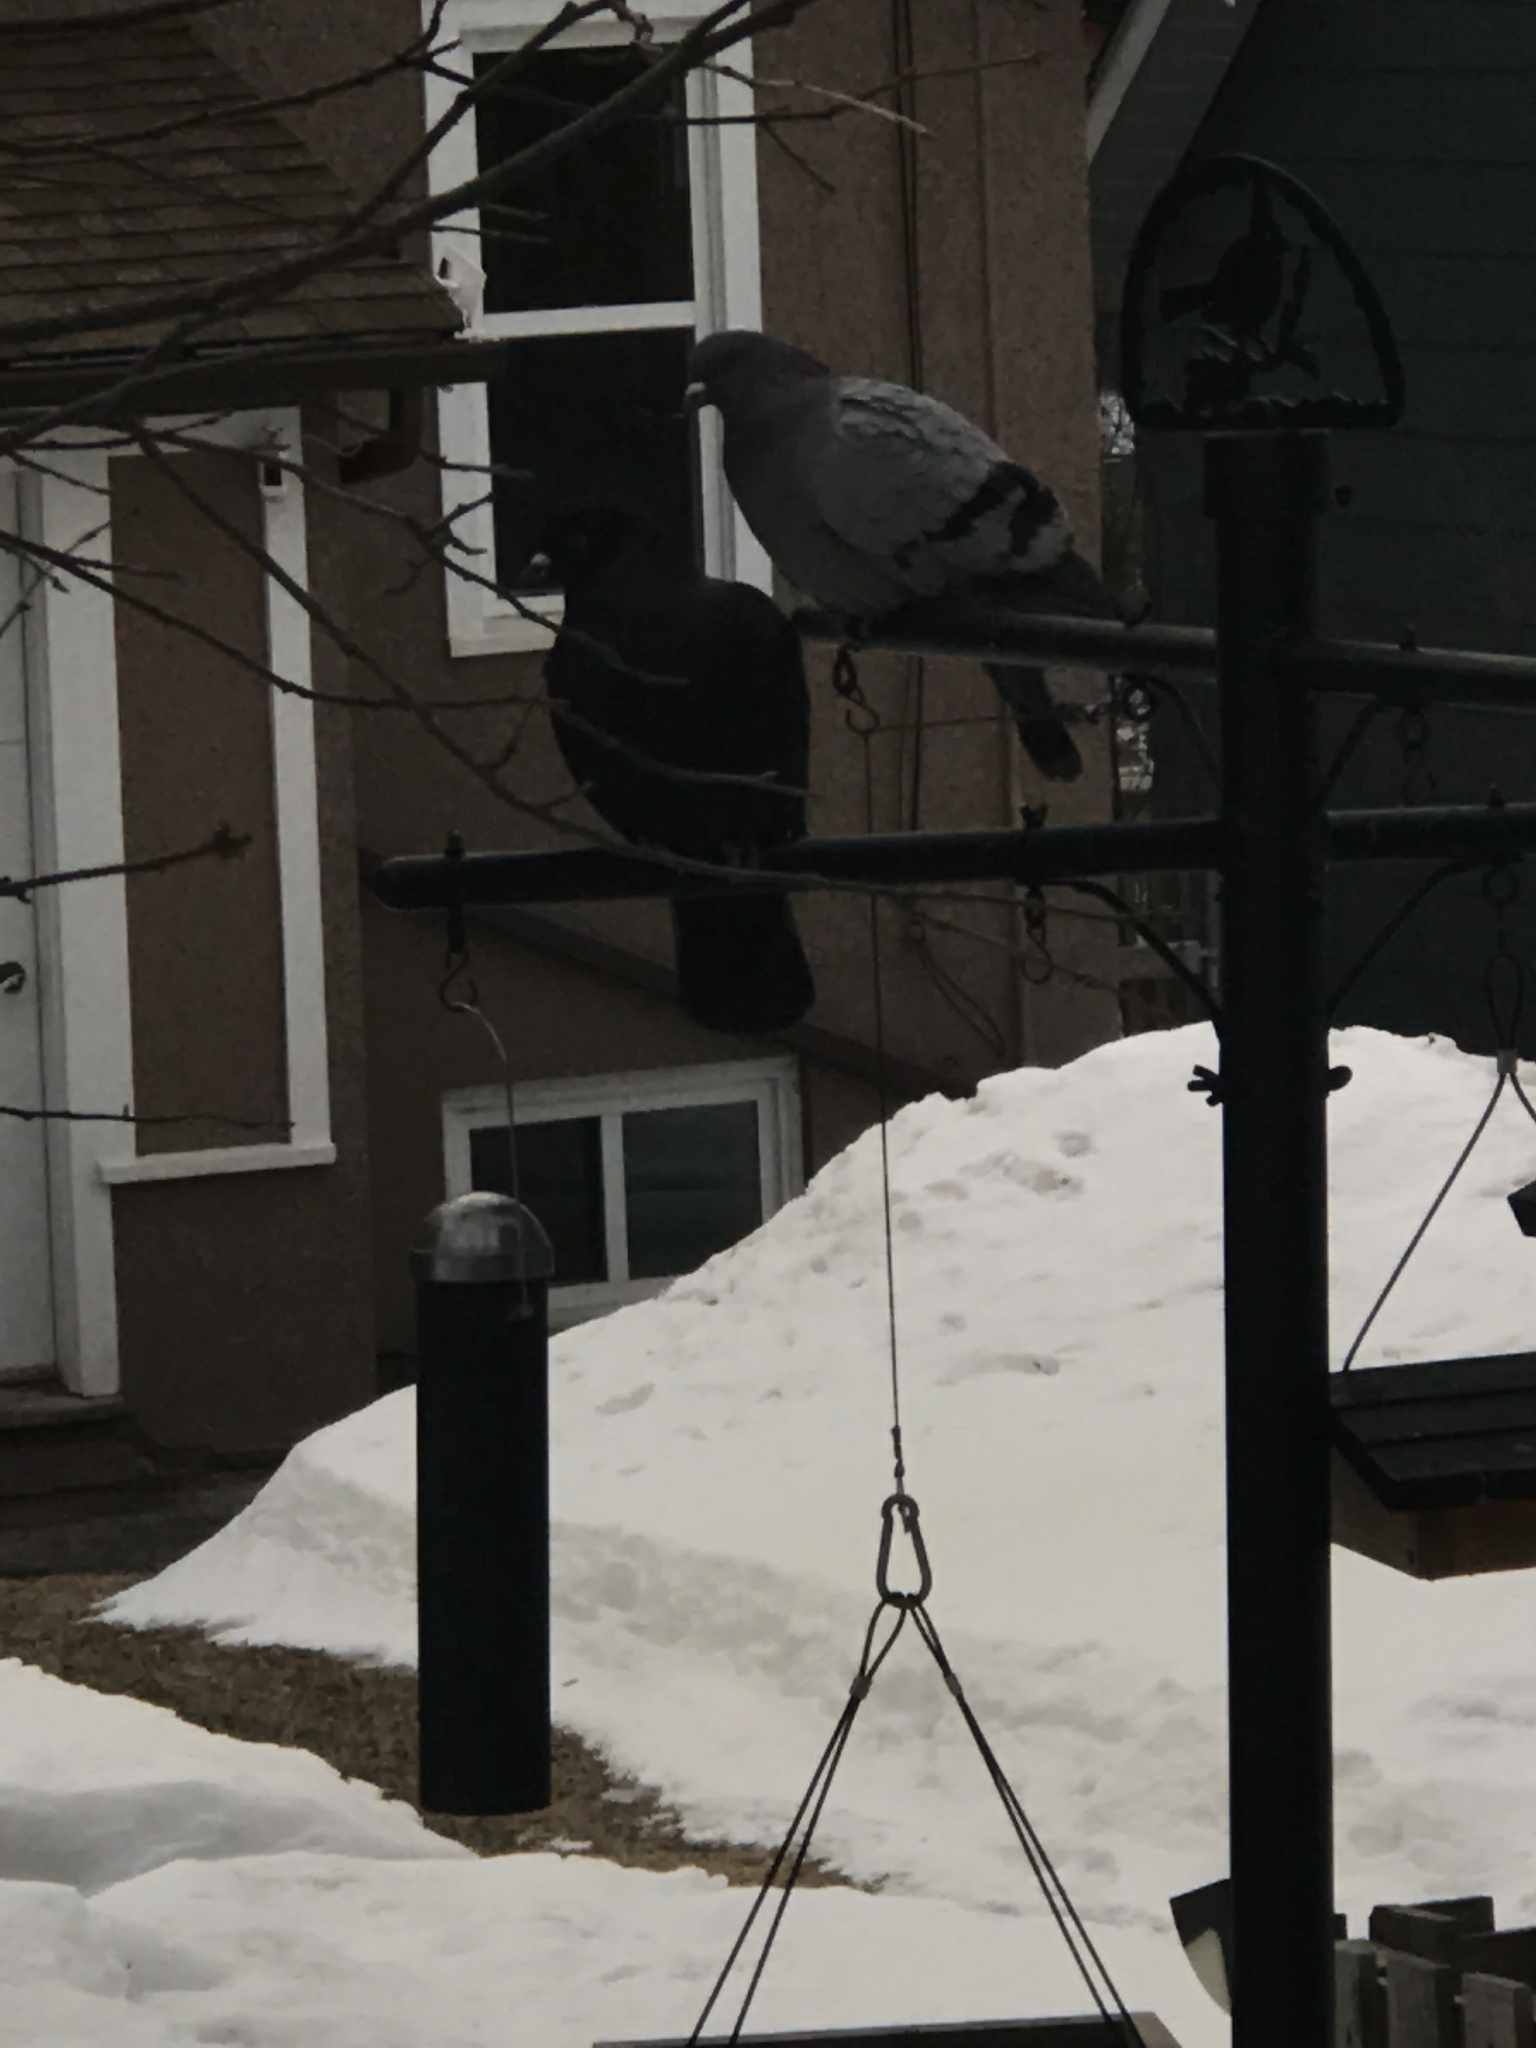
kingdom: Animalia
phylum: Chordata
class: Aves
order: Columbiformes
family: Columbidae
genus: Columba
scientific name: Columba livia
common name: Rock pigeon
